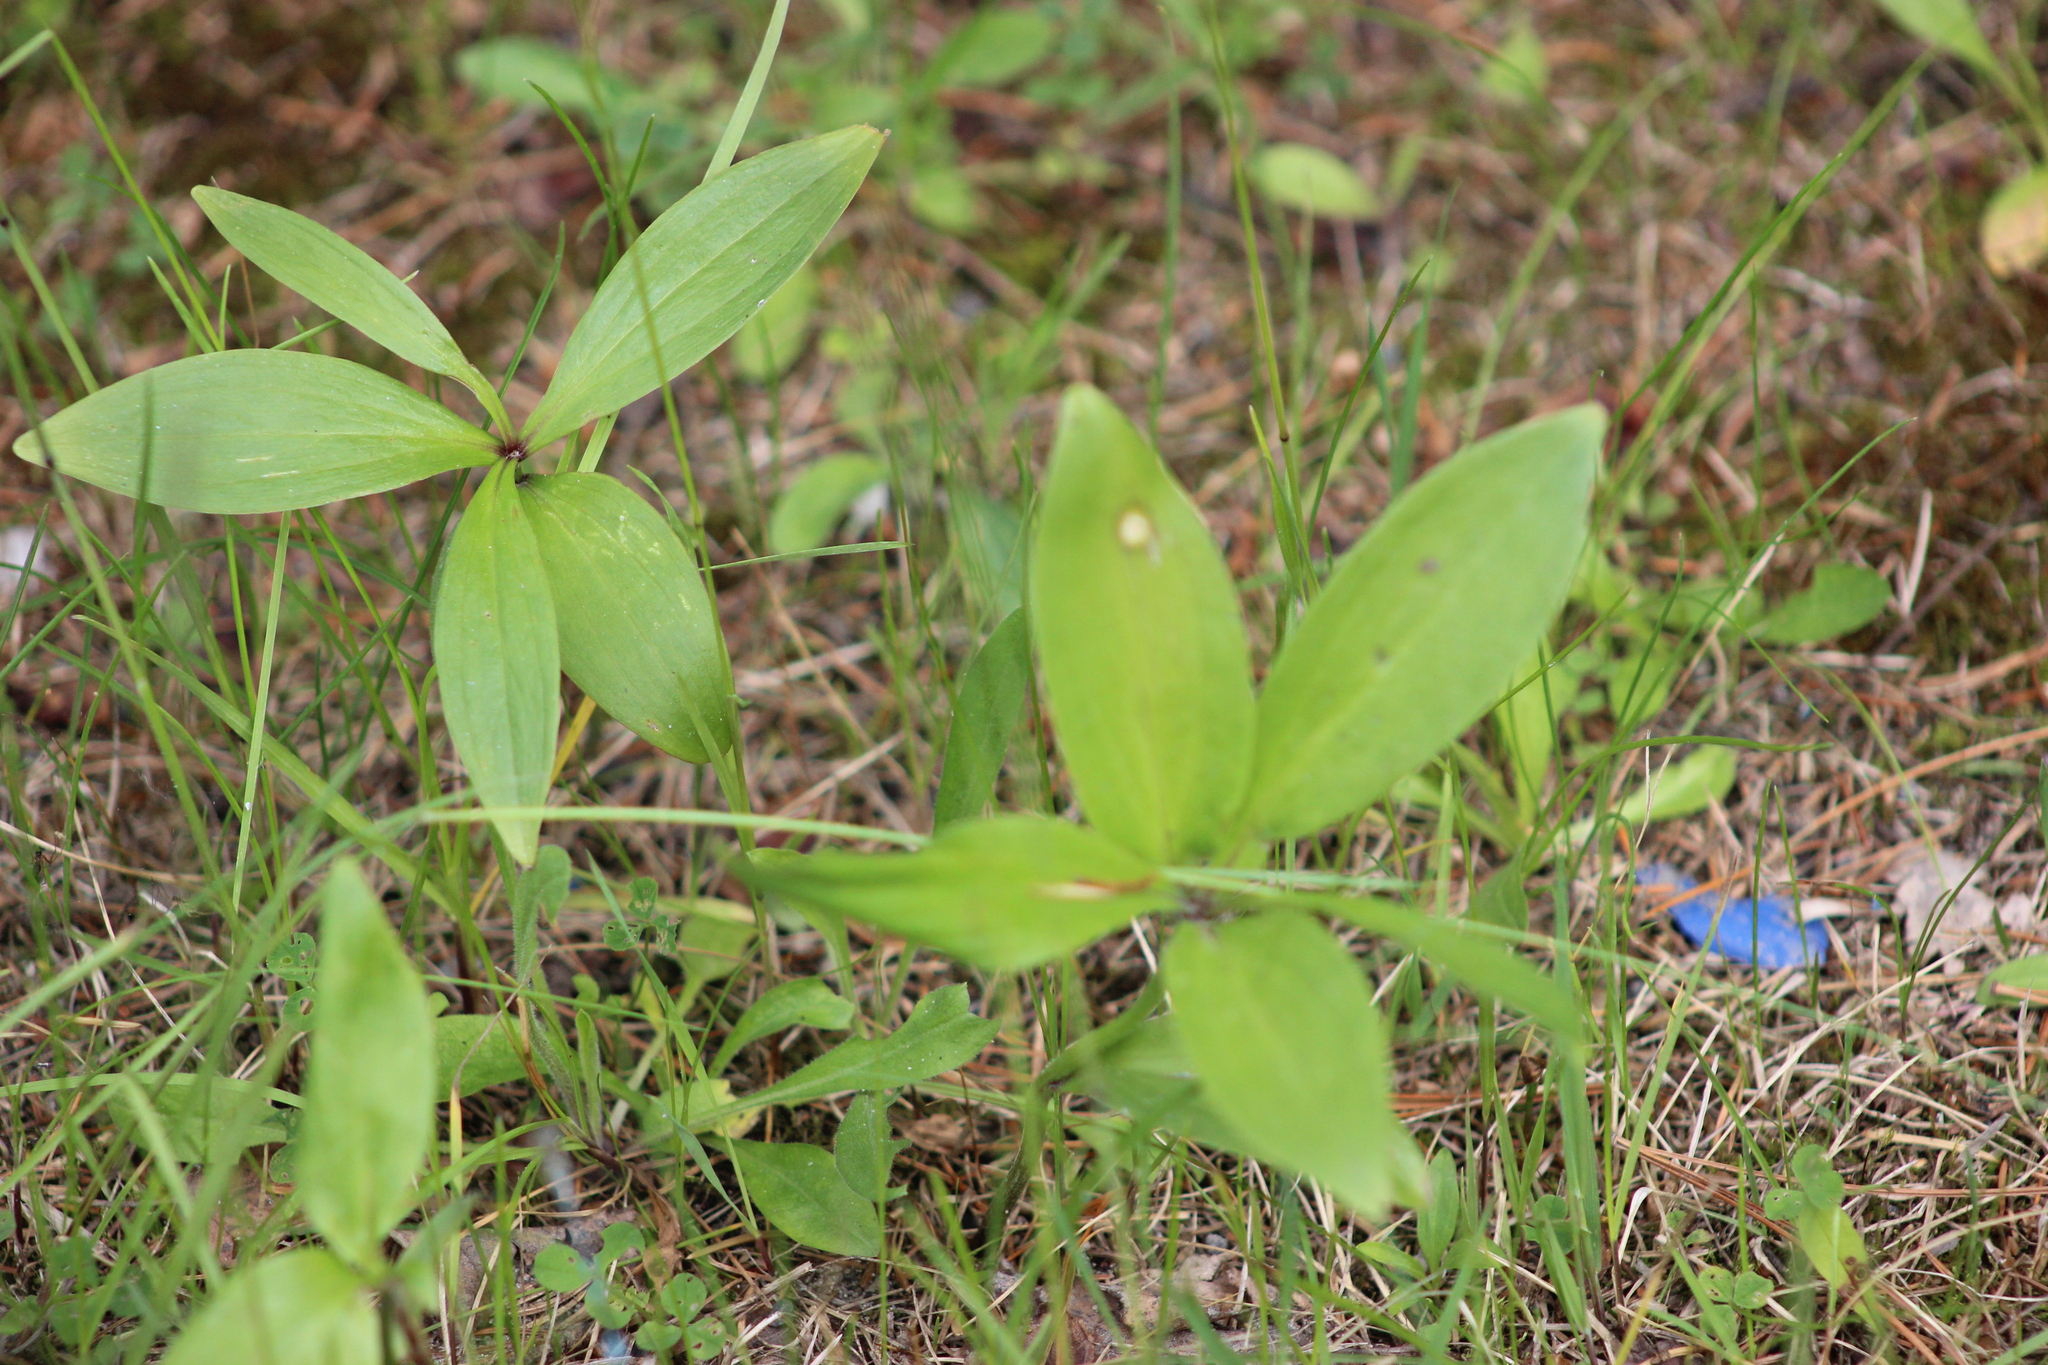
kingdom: Plantae
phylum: Tracheophyta
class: Liliopsida
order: Liliales
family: Liliaceae
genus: Lilium
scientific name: Lilium martagon
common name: Martagon lily
